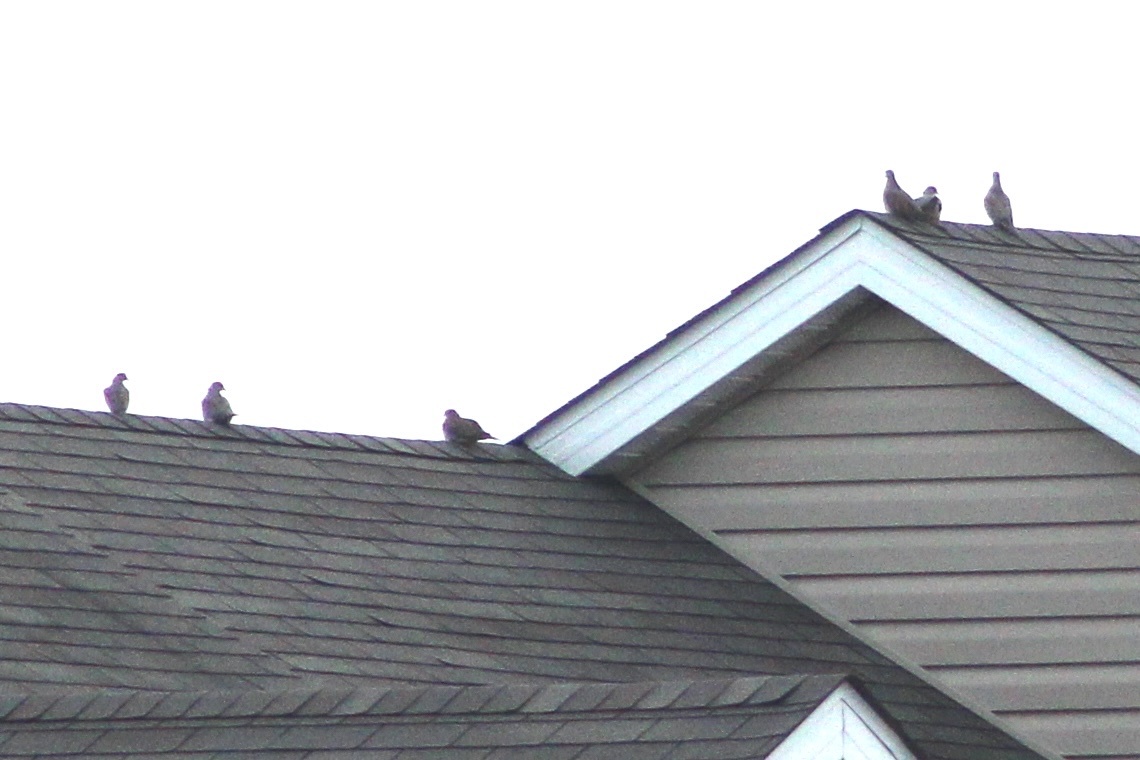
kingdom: Animalia
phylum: Chordata
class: Aves
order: Columbiformes
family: Columbidae
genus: Zenaida
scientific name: Zenaida macroura
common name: Mourning dove
